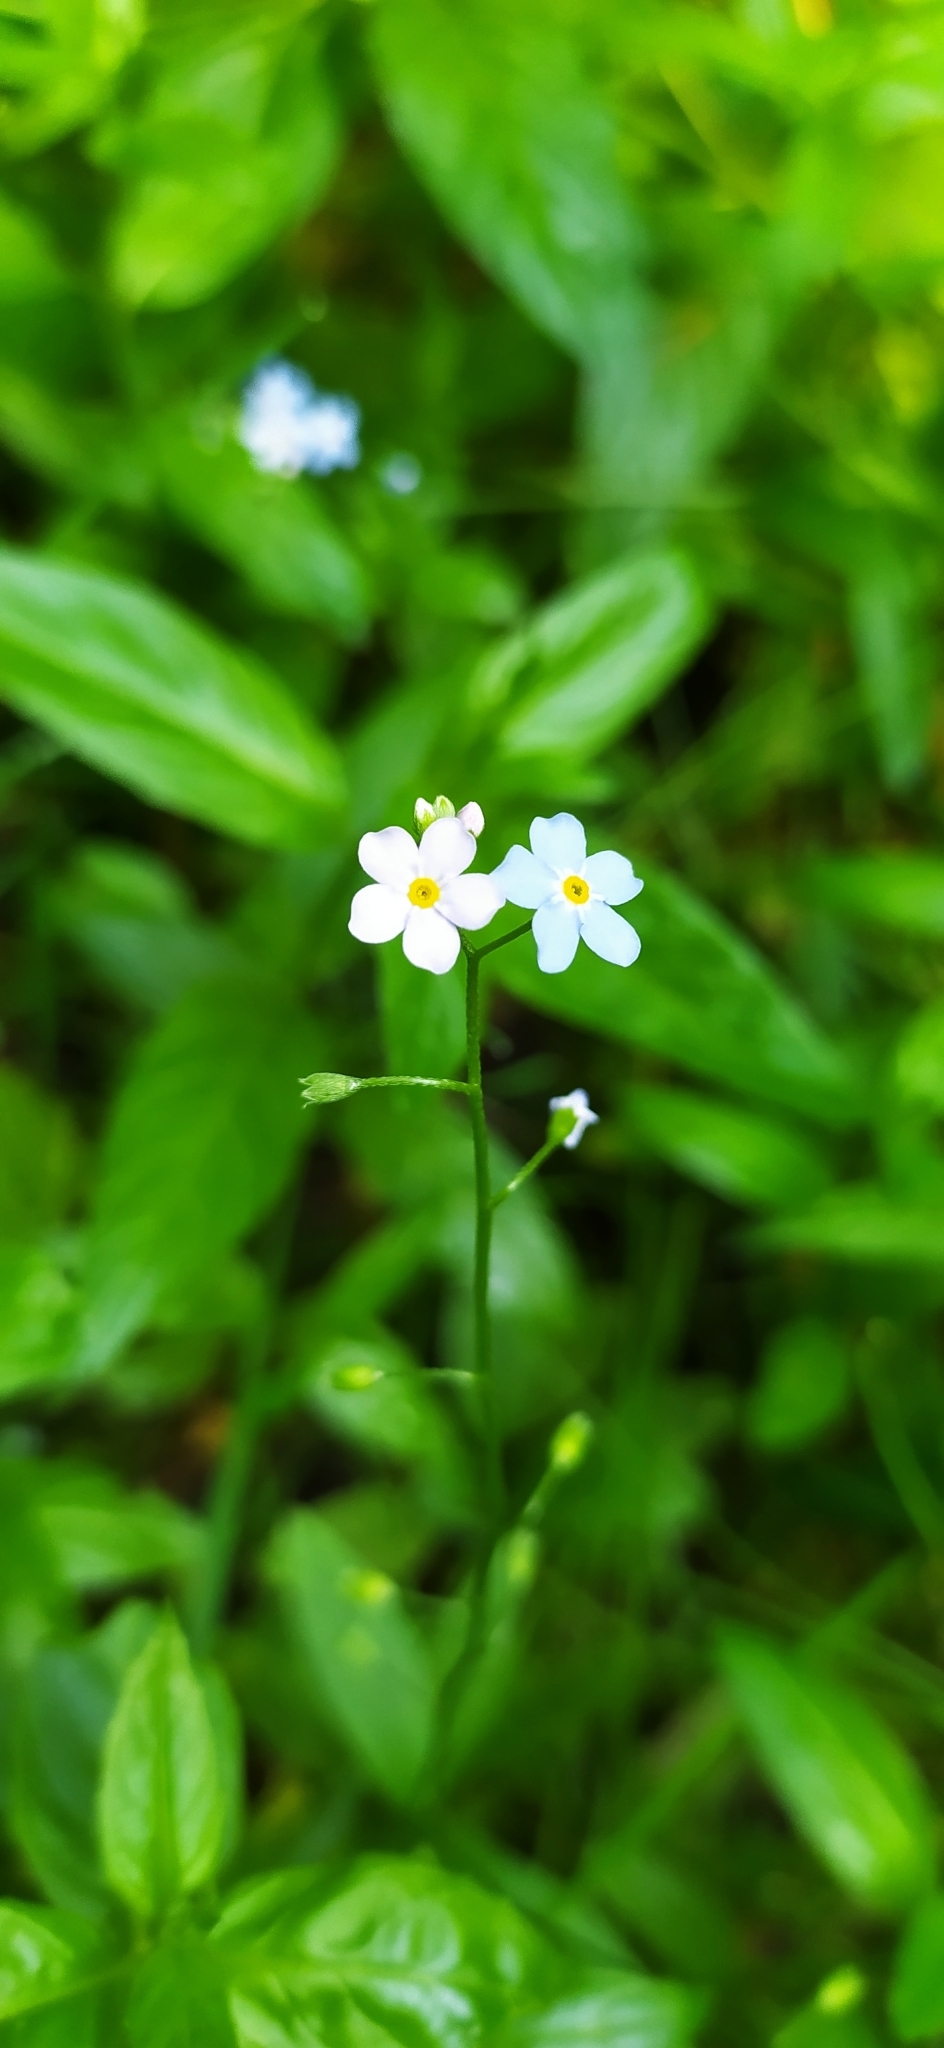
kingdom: Plantae
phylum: Tracheophyta
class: Magnoliopsida
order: Boraginales
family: Boraginaceae
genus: Myosotis
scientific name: Myosotis scorpioides
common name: Water forget-me-not
